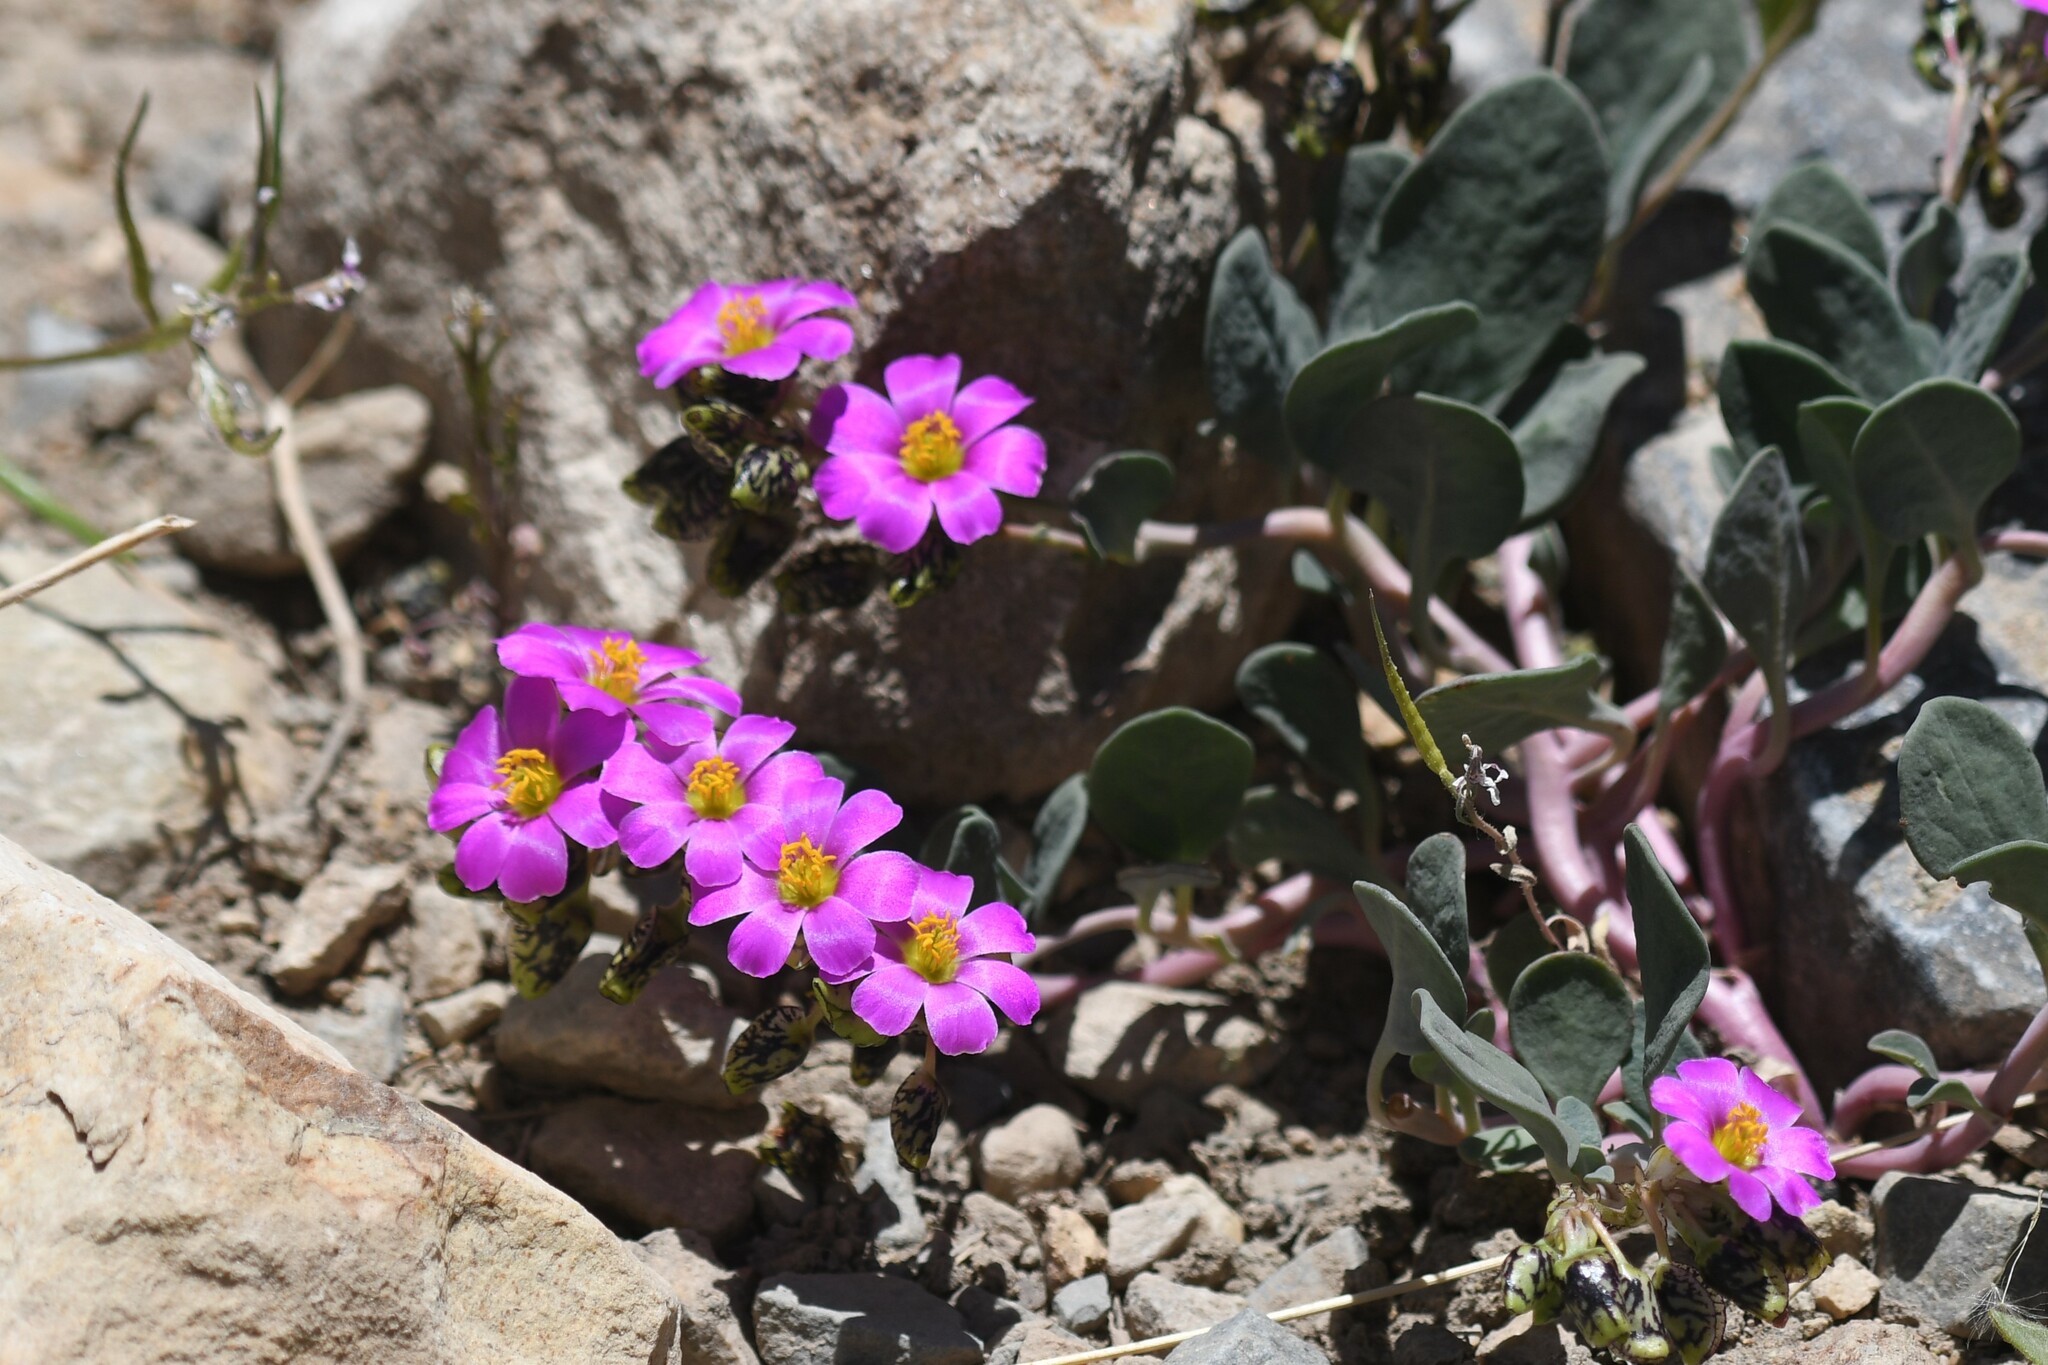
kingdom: Plantae
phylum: Tracheophyta
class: Magnoliopsida
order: Caryophyllales
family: Montiaceae
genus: Cistanthe
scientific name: Cistanthe picta
